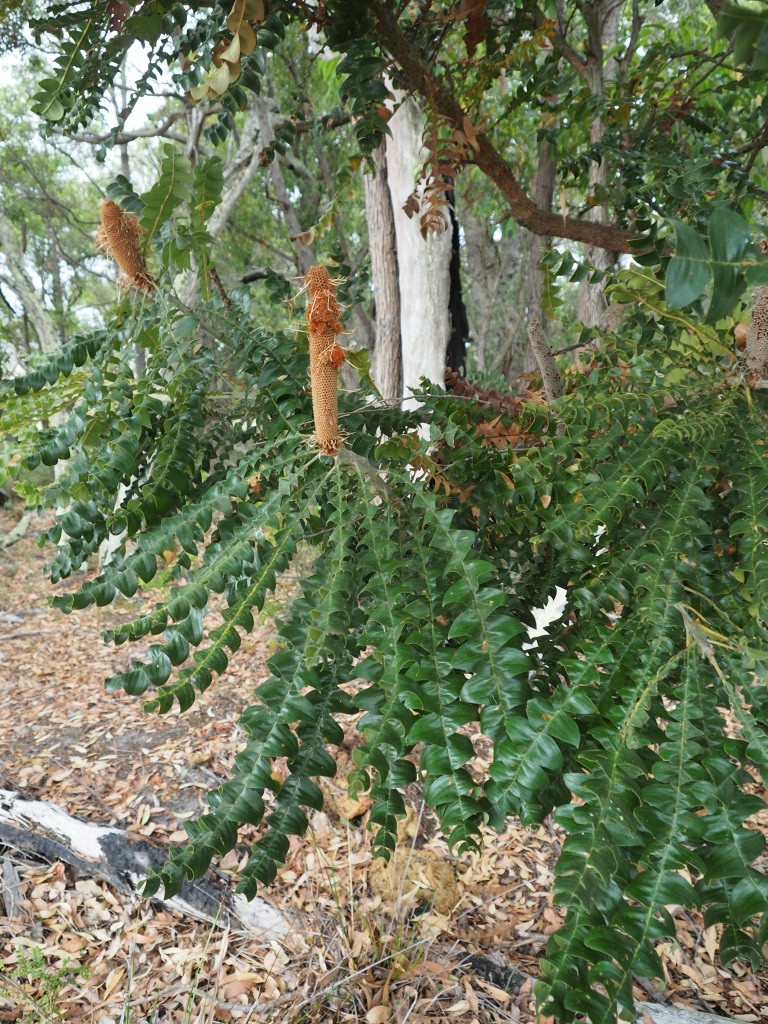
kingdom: Plantae
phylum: Tracheophyta
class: Magnoliopsida
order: Proteales
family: Proteaceae
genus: Banksia
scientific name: Banksia grandis
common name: Giant banksia
